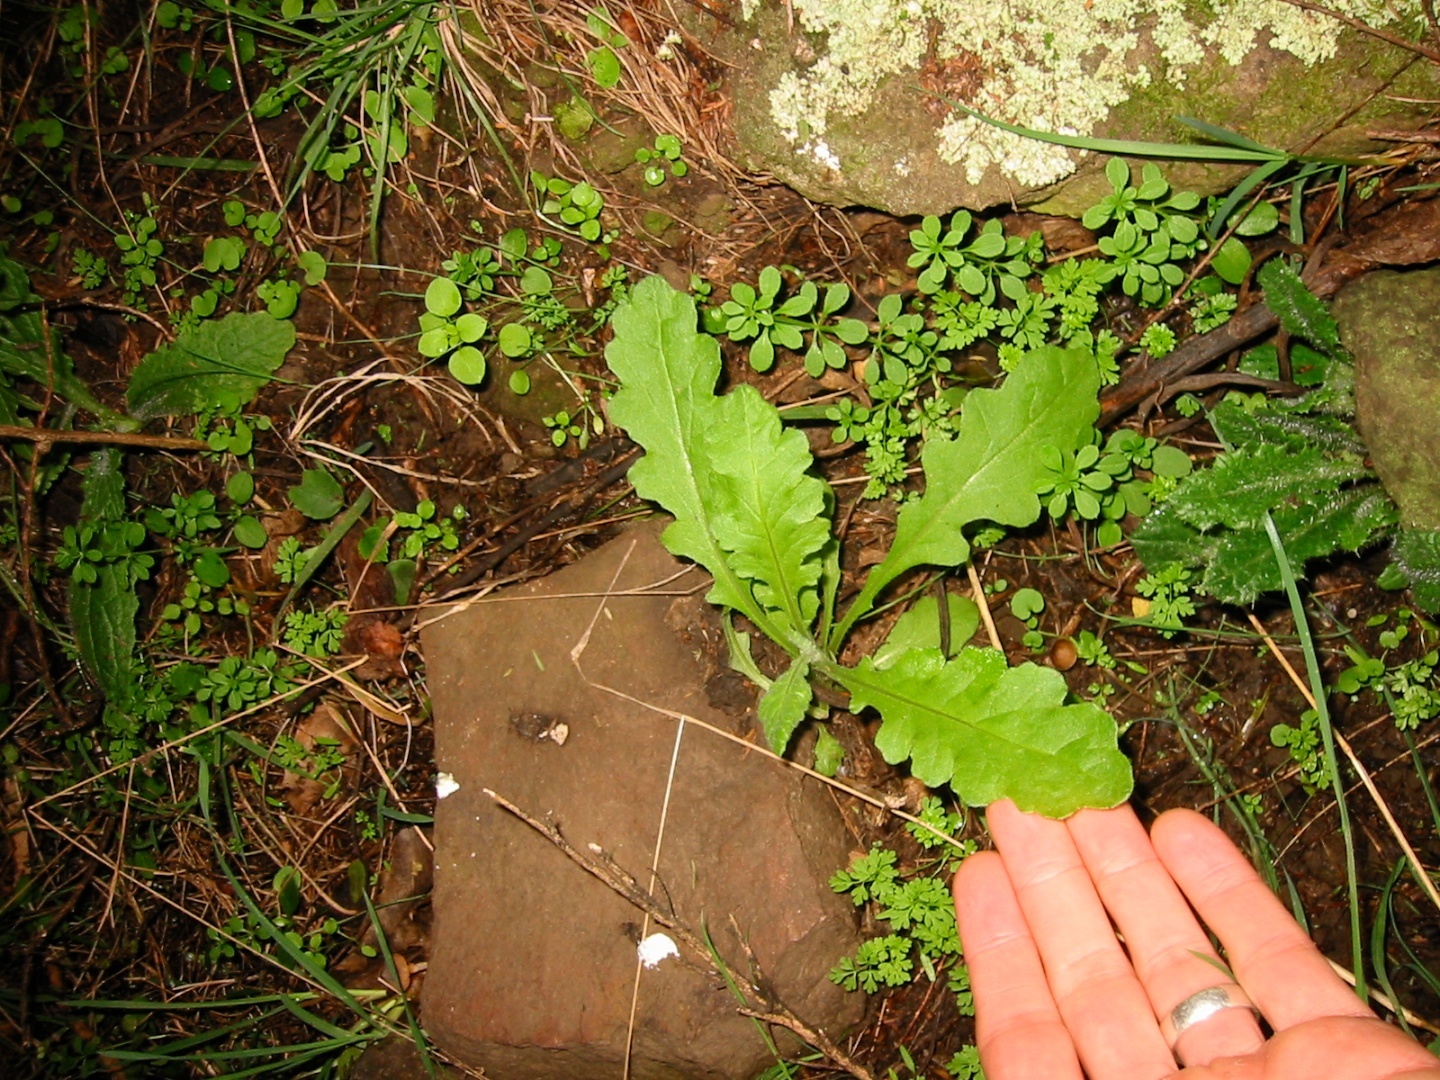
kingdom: Plantae
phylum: Tracheophyta
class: Magnoliopsida
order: Asterales
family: Asteraceae
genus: Senecio
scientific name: Senecio glomeratus
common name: Cutleaf burnweed
